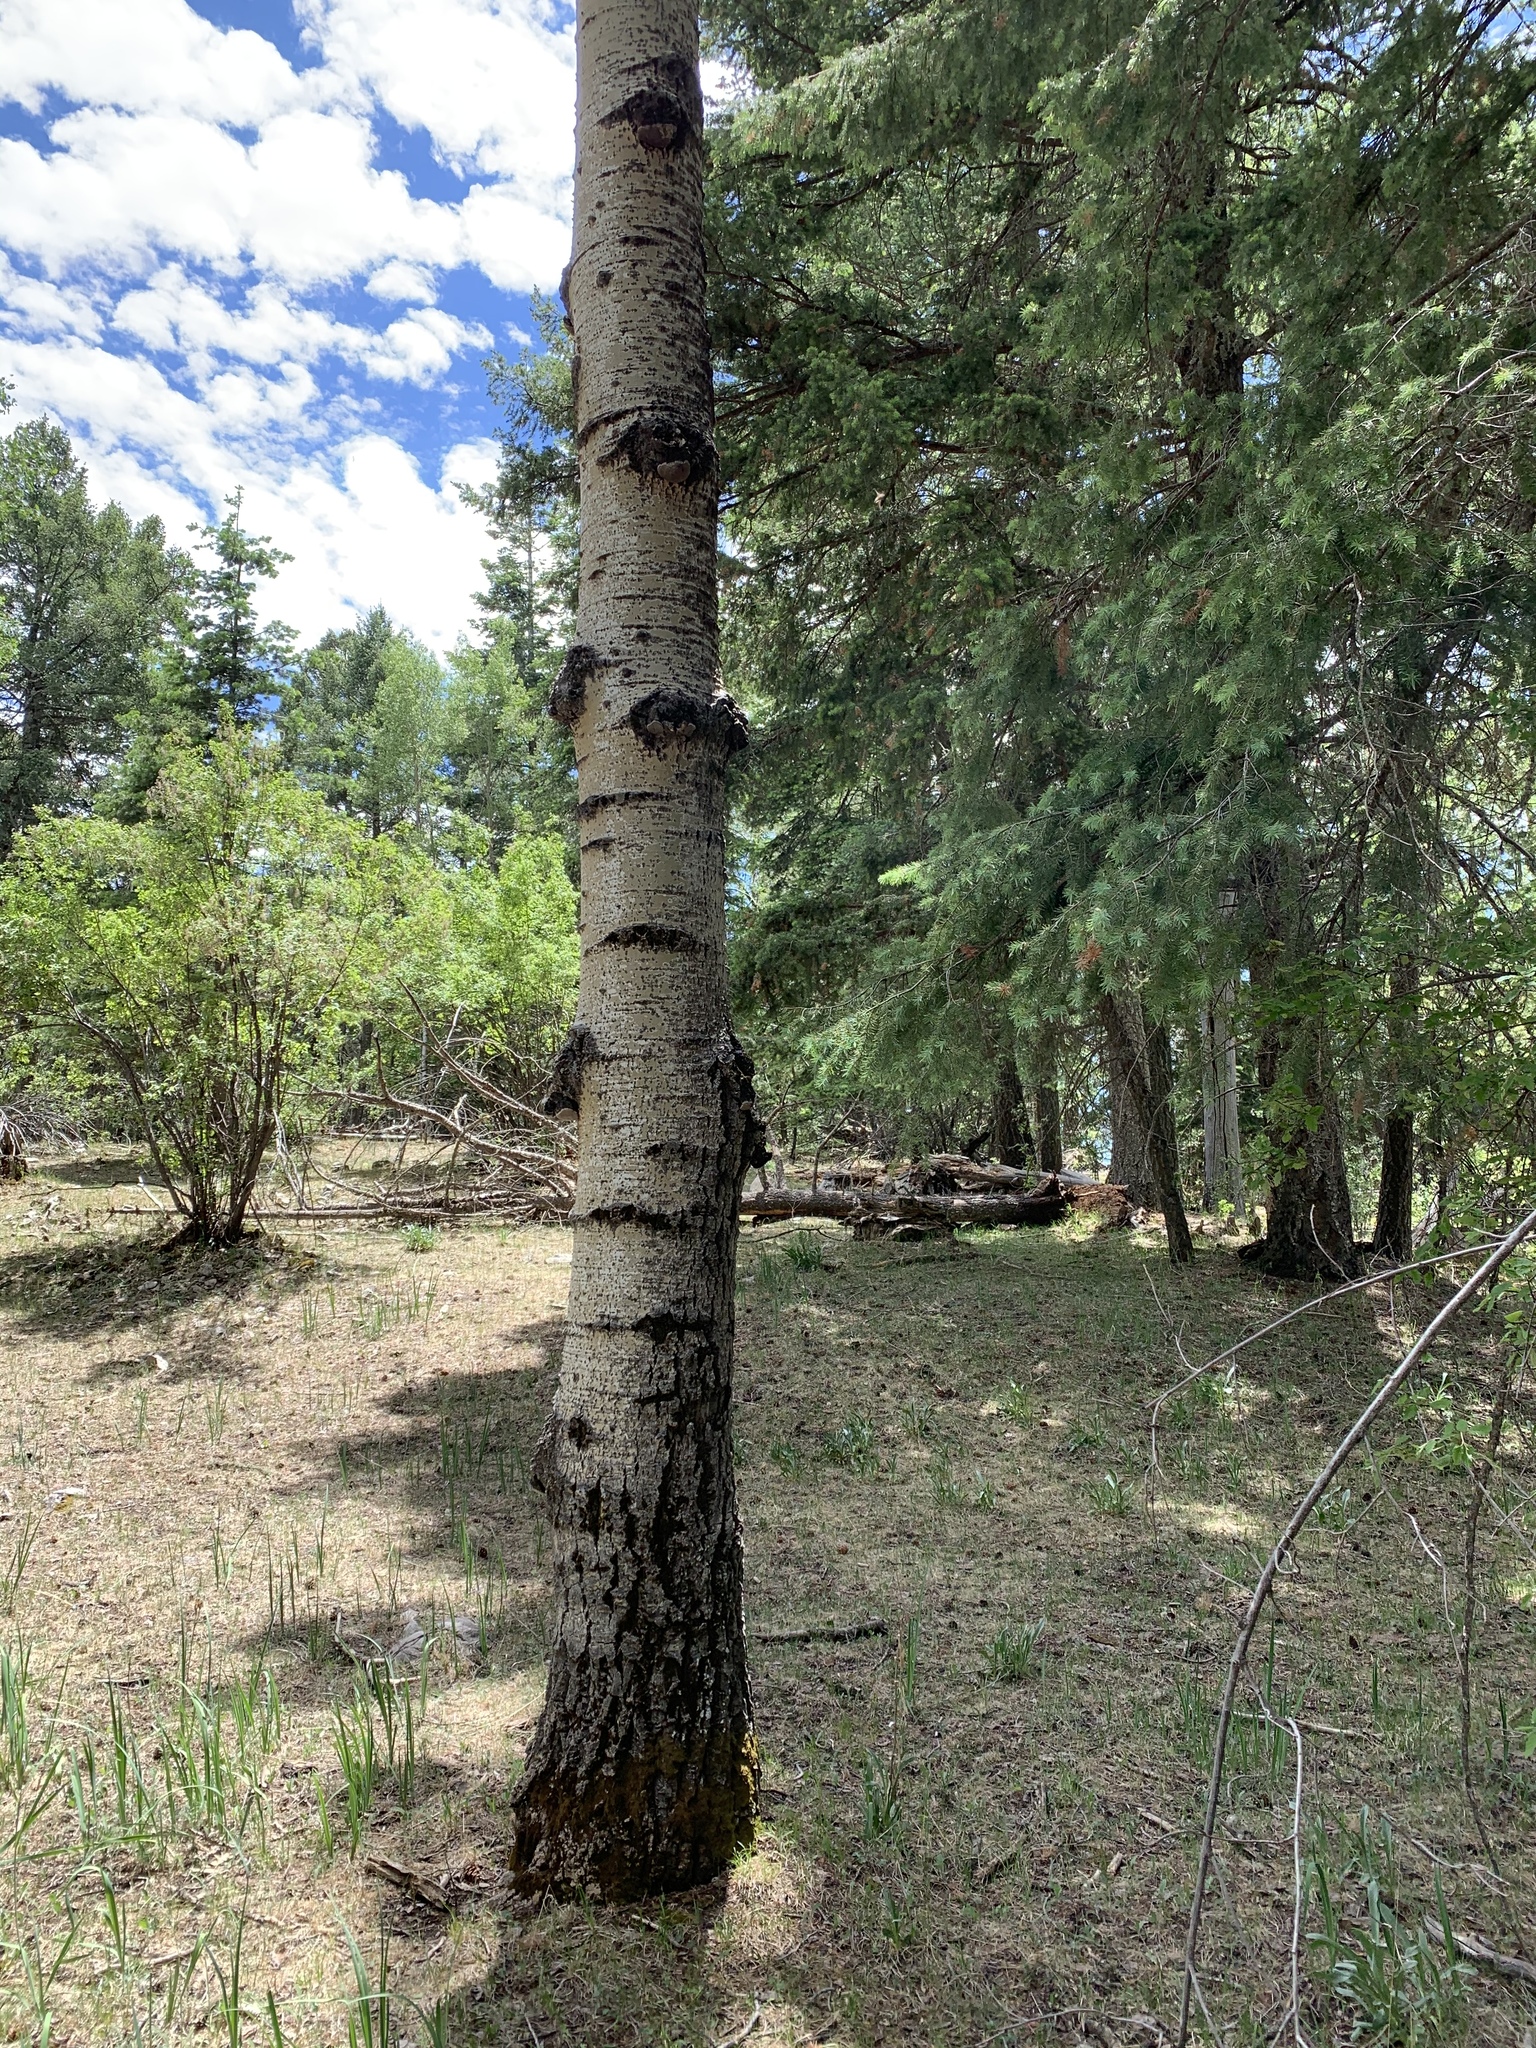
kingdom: Plantae
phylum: Tracheophyta
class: Magnoliopsida
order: Malpighiales
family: Salicaceae
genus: Populus
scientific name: Populus tremuloides
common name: Quaking aspen
